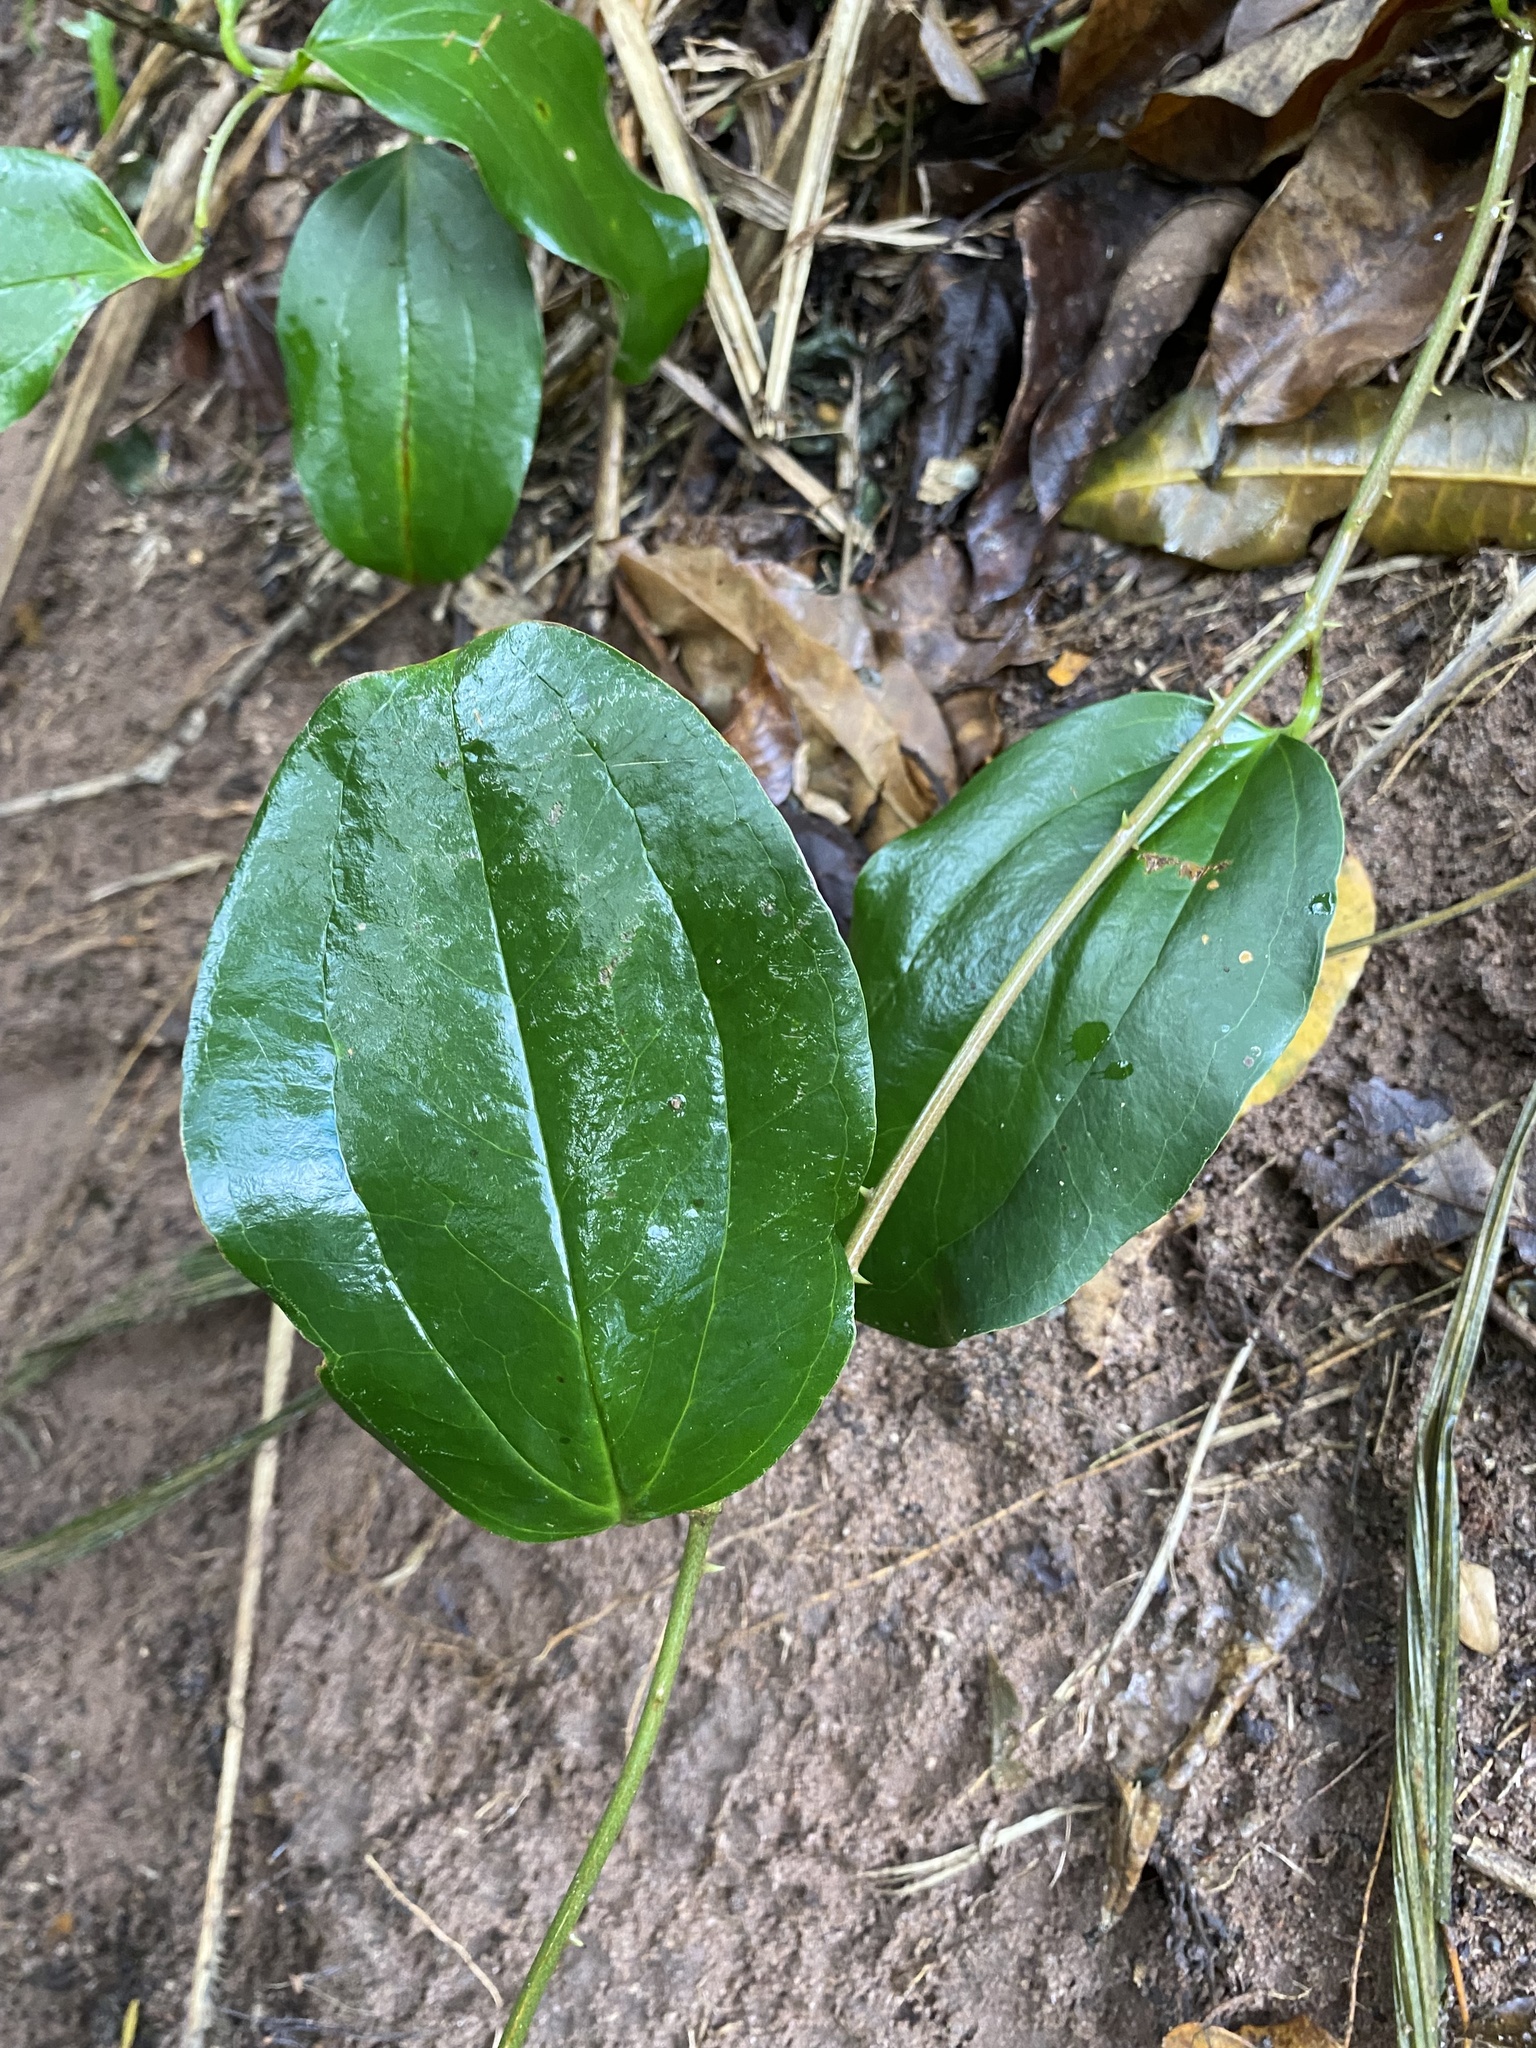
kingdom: Plantae
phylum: Tracheophyta
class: Liliopsida
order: Liliales
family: Smilacaceae
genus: Smilax
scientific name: Smilax anceps
